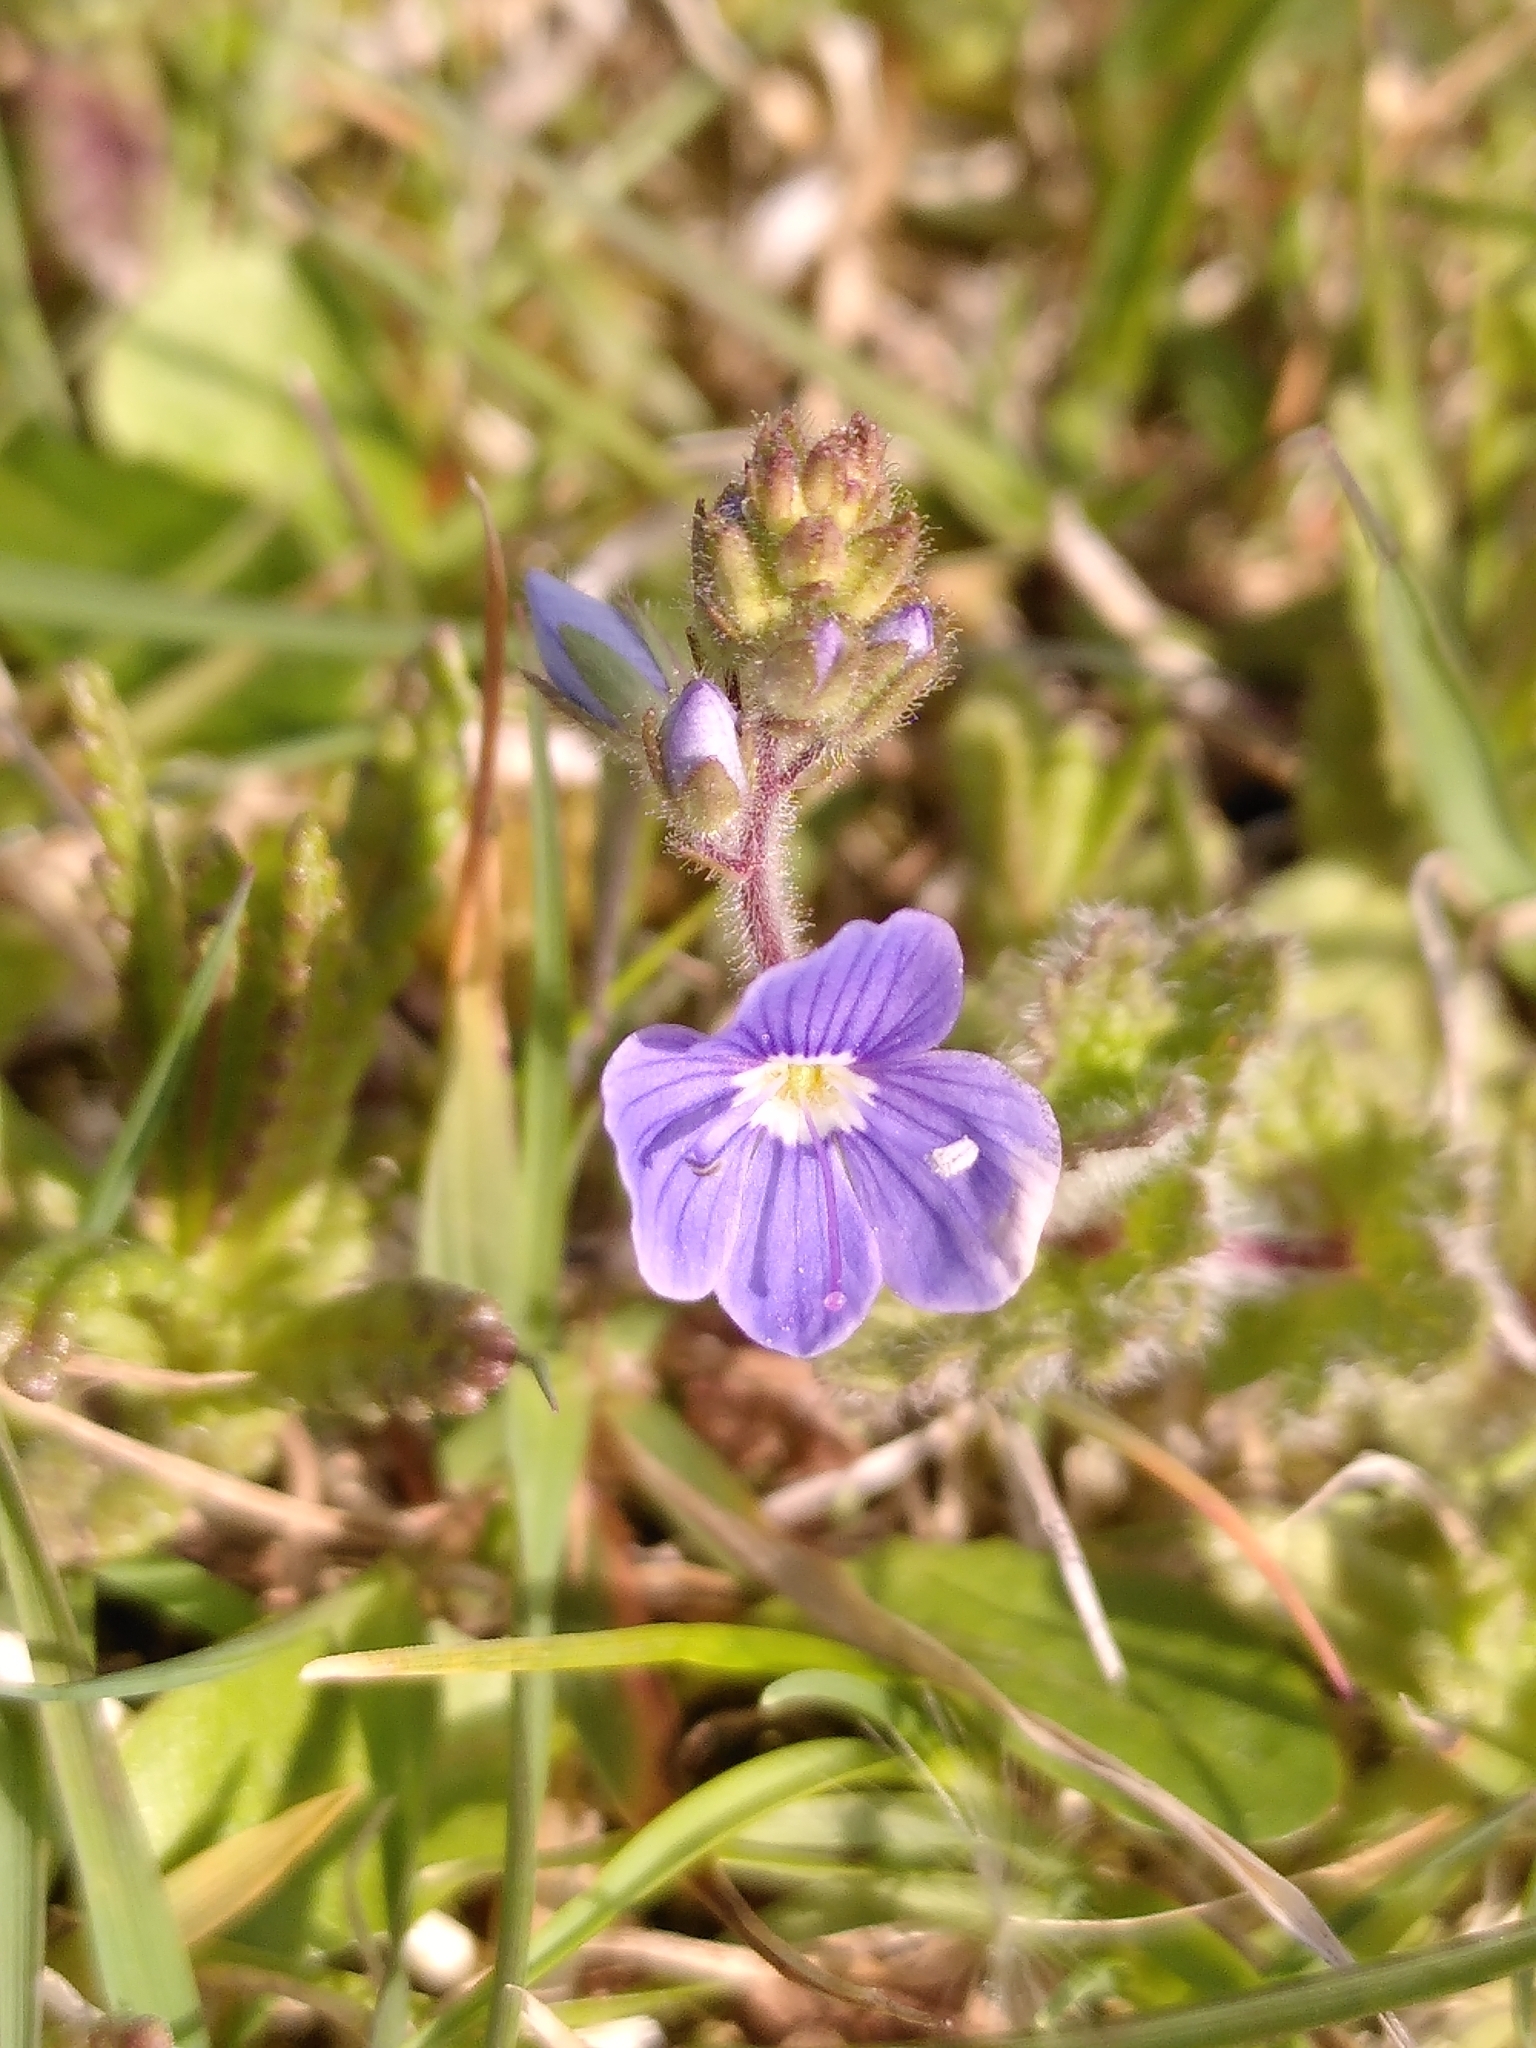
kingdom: Plantae
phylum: Tracheophyta
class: Magnoliopsida
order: Lamiales
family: Plantaginaceae
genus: Veronica
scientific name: Veronica chamaedrys
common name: Germander speedwell
